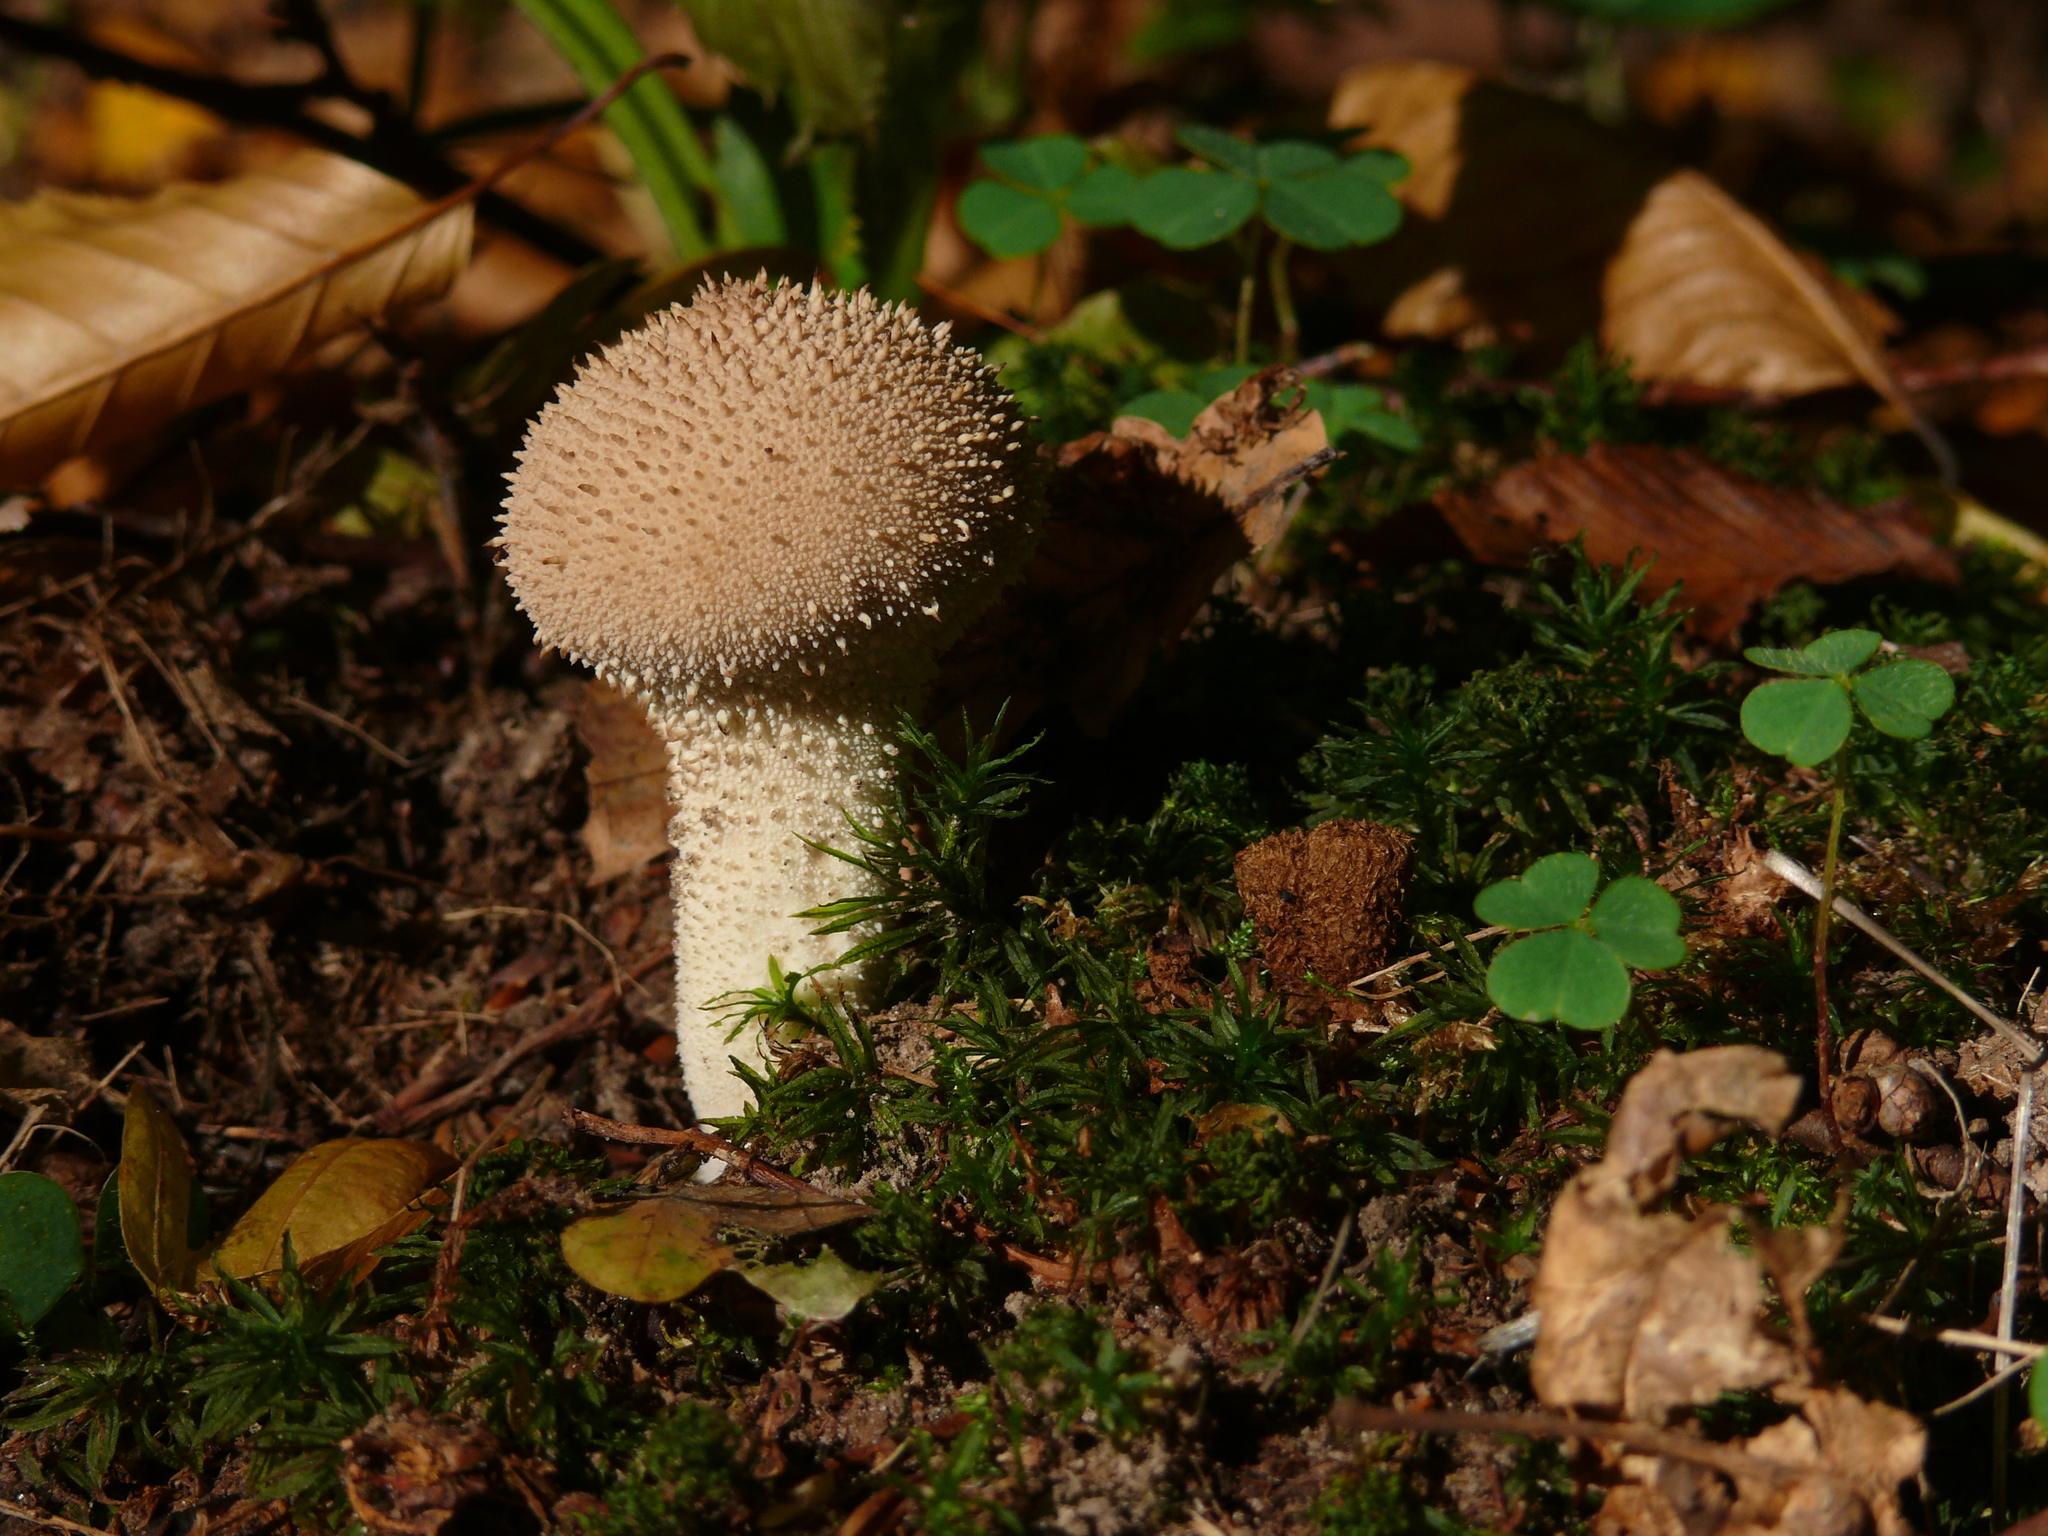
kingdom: Fungi
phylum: Basidiomycota
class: Agaricomycetes
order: Agaricales
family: Lycoperdaceae
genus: Lycoperdon
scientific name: Lycoperdon perlatum
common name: Common puffball
